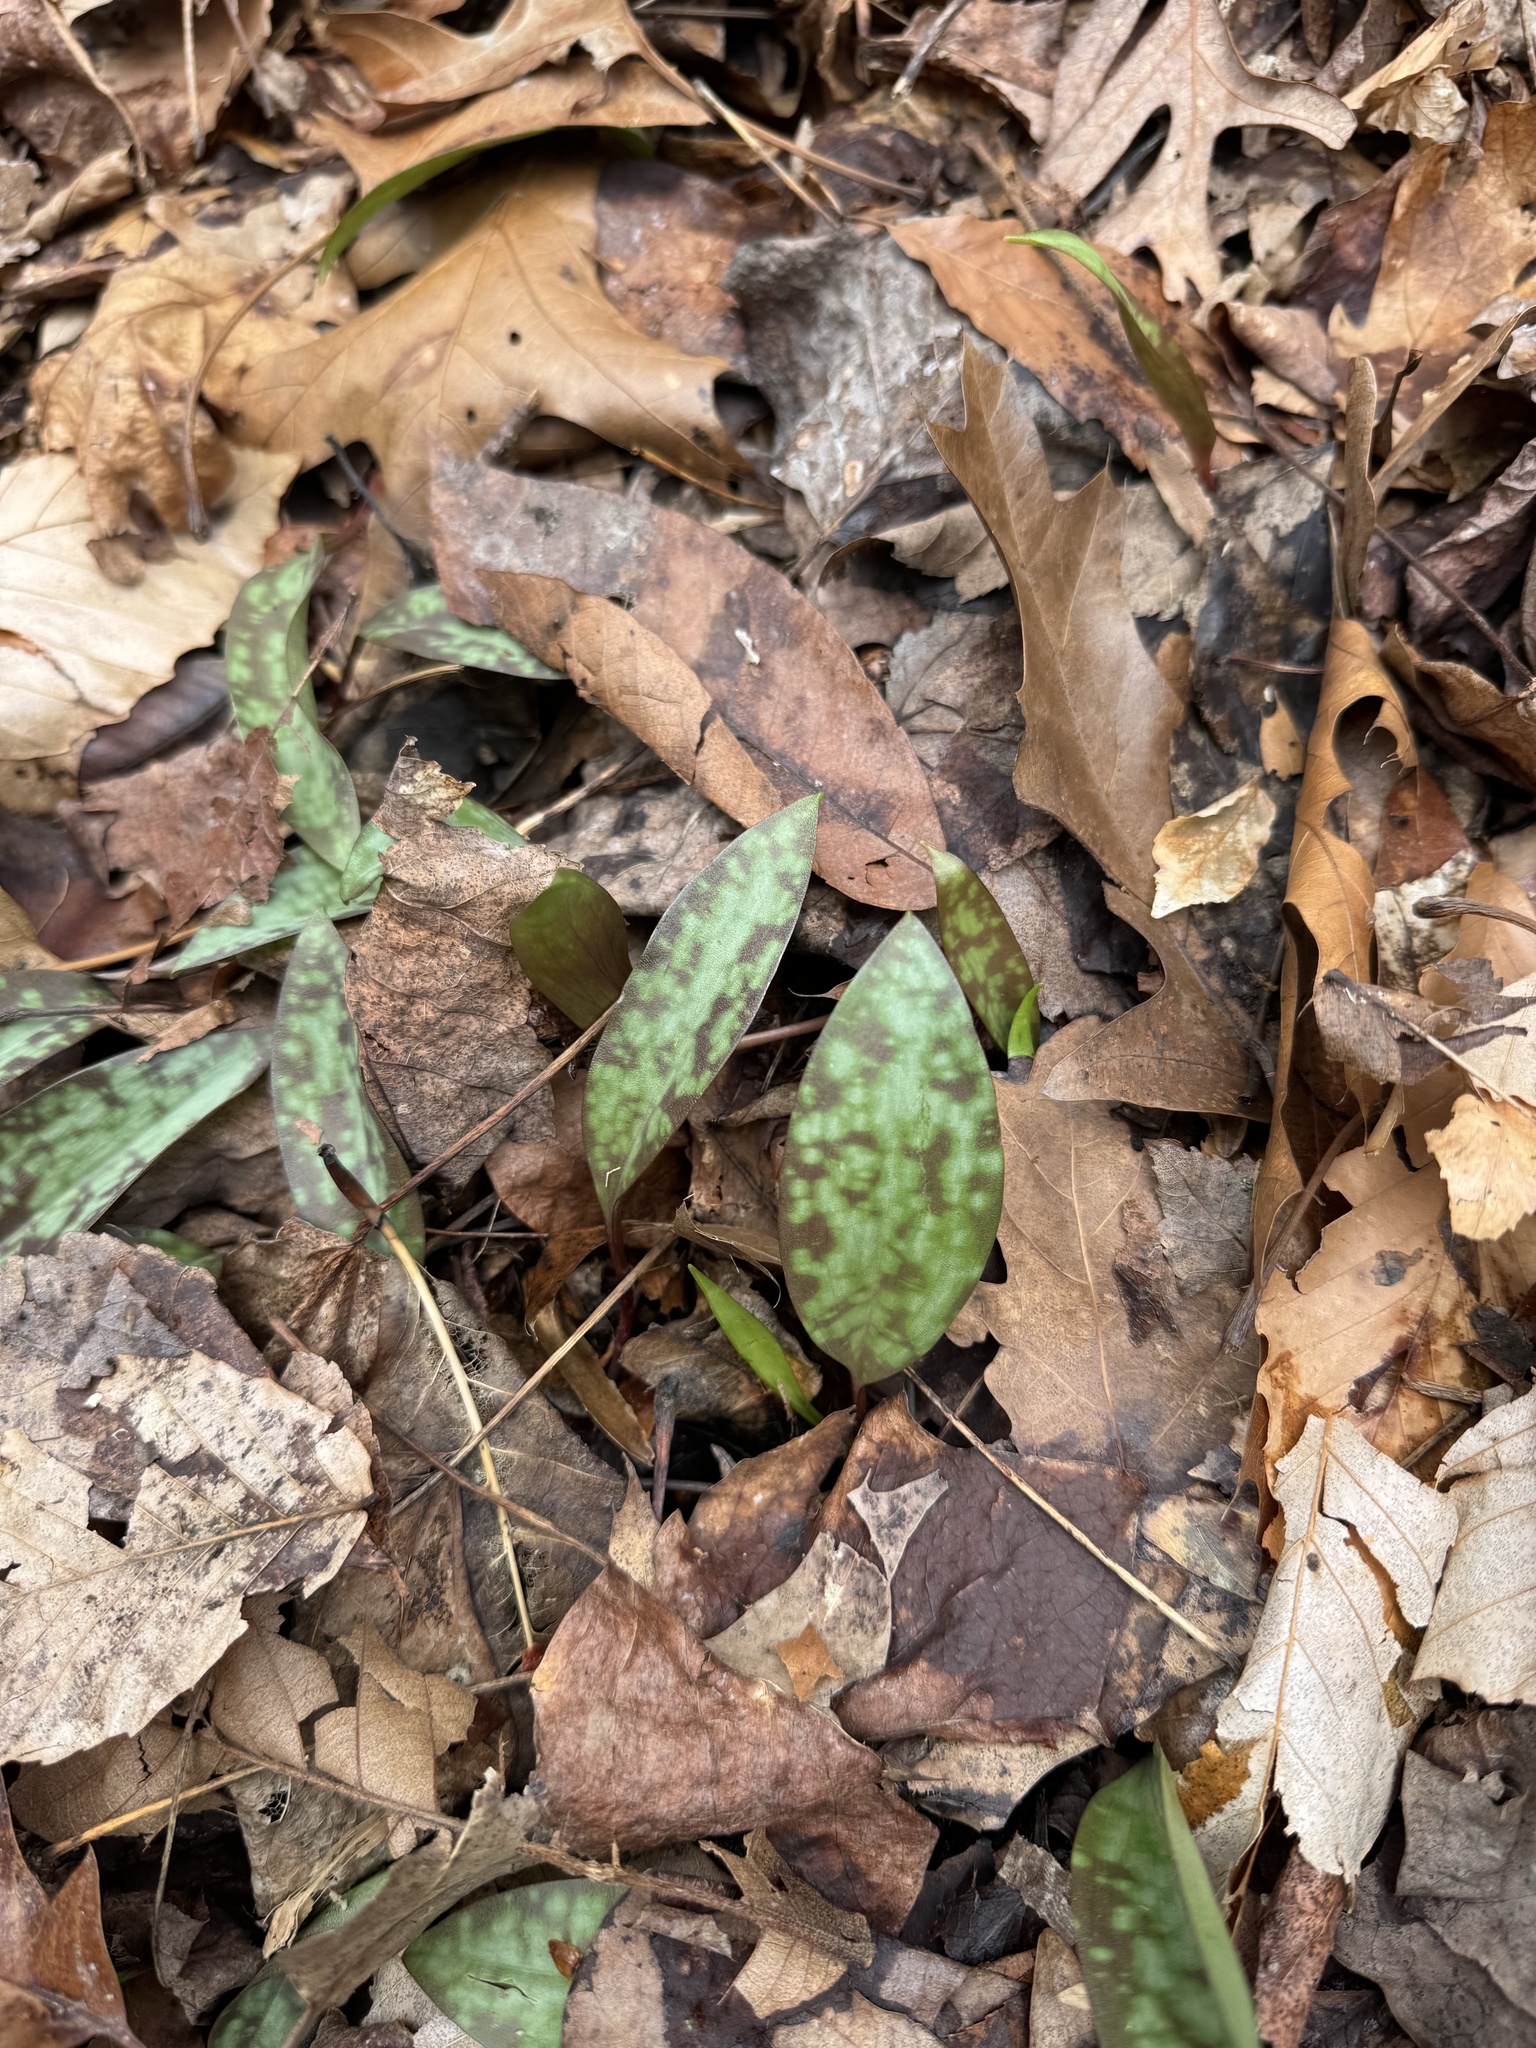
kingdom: Plantae
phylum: Tracheophyta
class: Liliopsida
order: Liliales
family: Liliaceae
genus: Erythronium
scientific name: Erythronium americanum
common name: Yellow adder's-tongue
